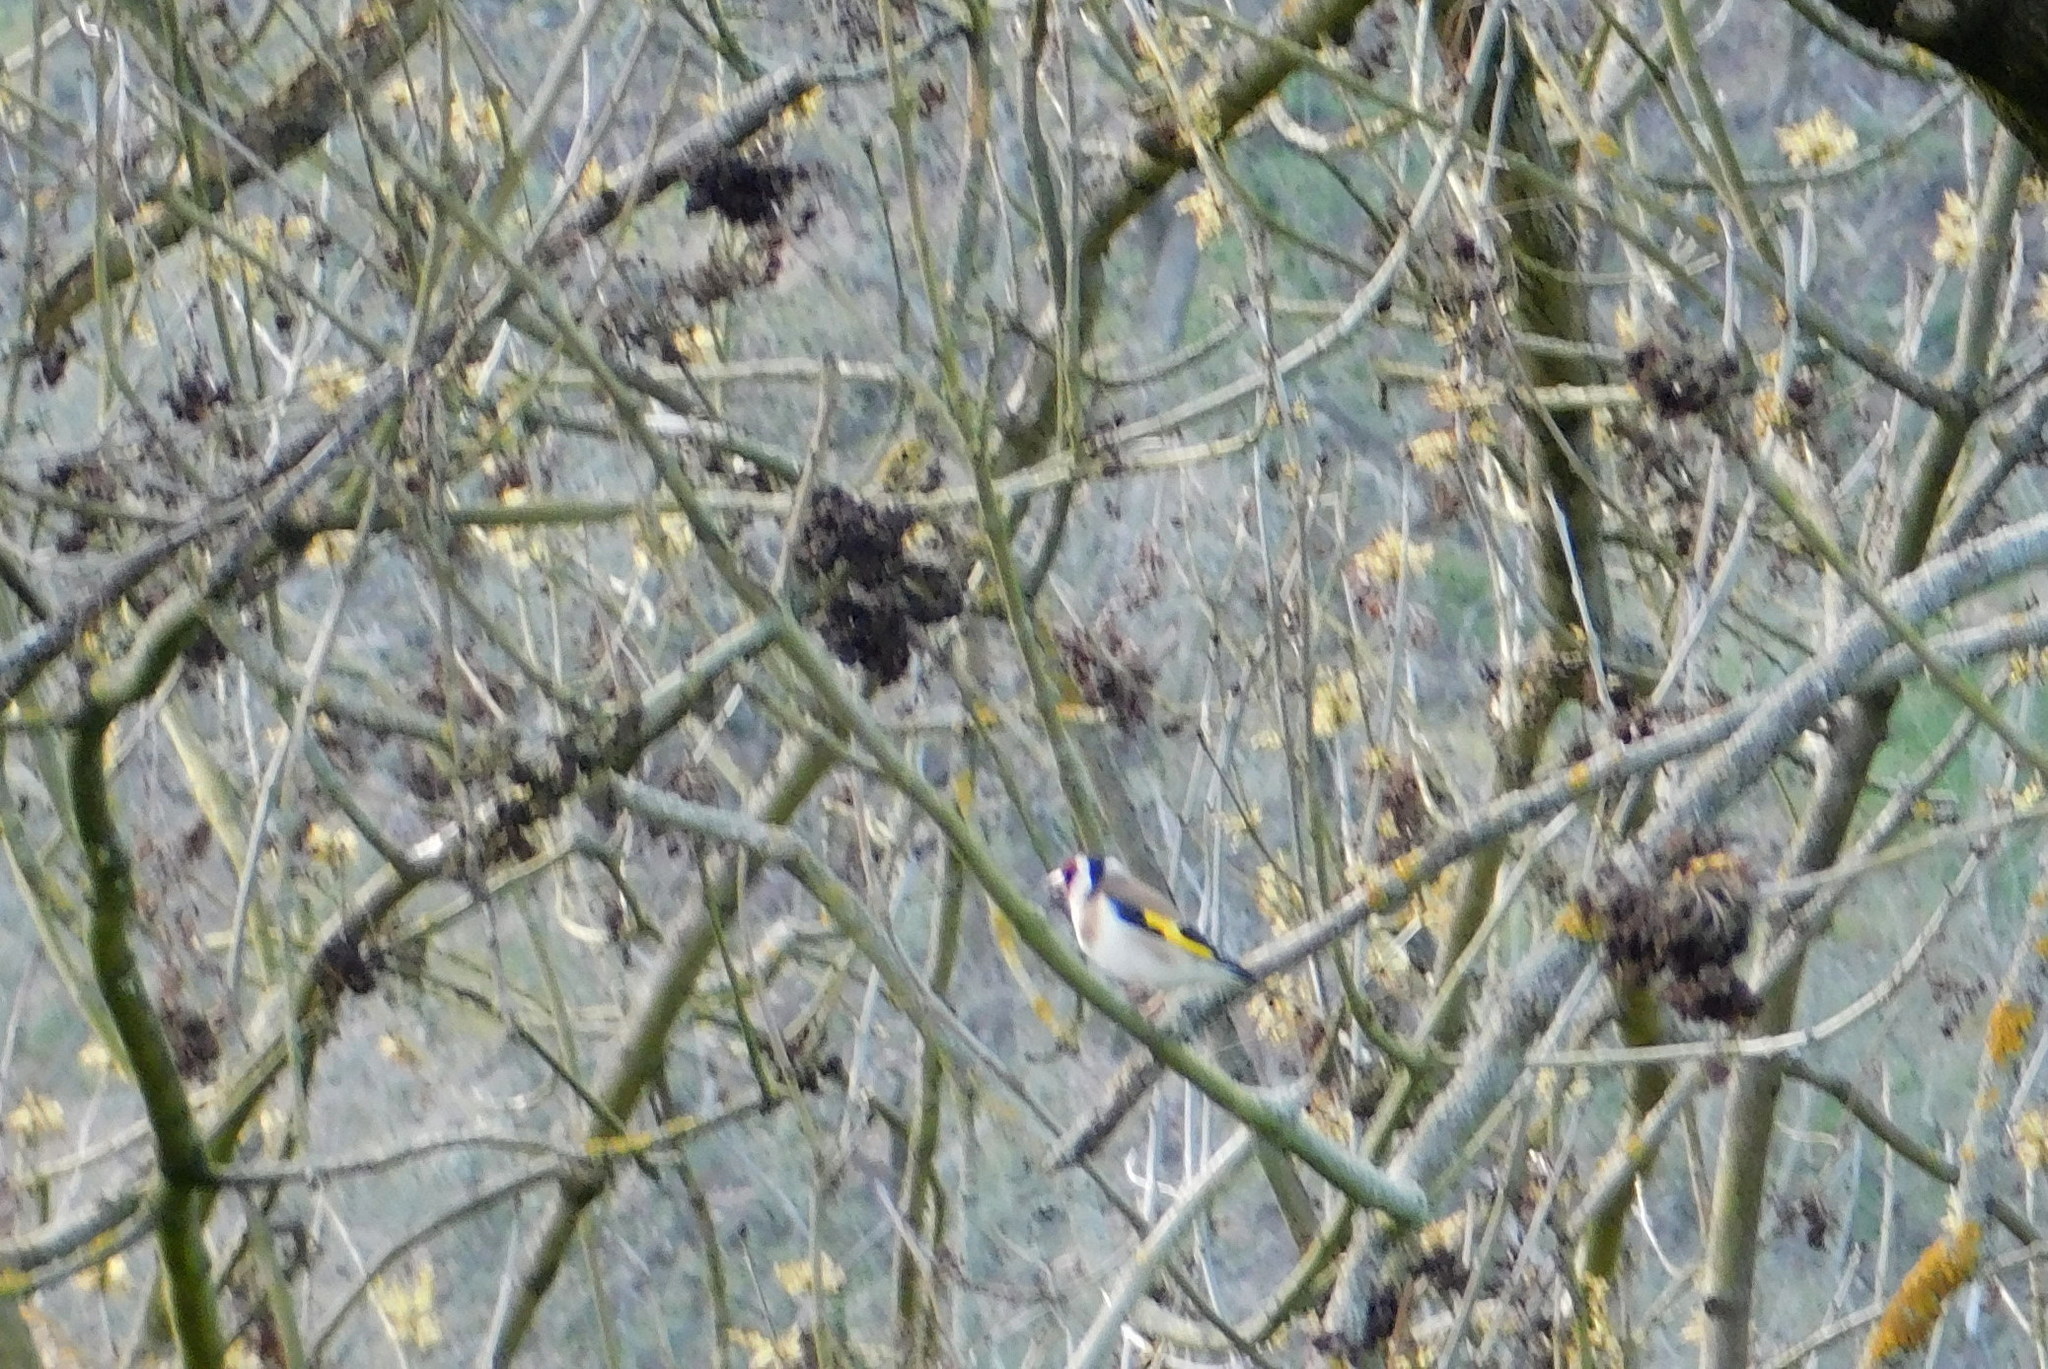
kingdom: Animalia
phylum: Chordata
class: Aves
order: Passeriformes
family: Fringillidae
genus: Carduelis
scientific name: Carduelis carduelis
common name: European goldfinch
